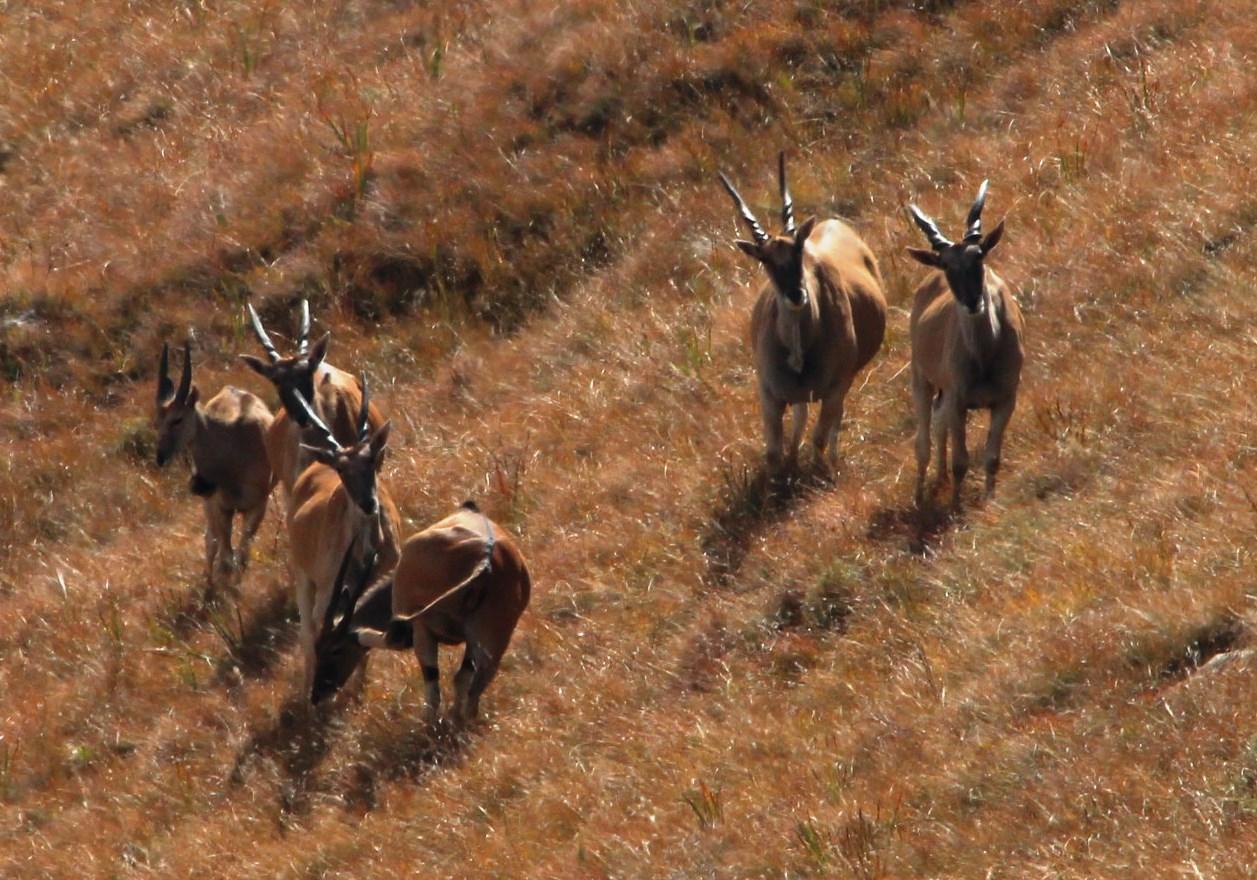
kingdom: Animalia
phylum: Chordata
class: Mammalia
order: Artiodactyla
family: Bovidae
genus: Taurotragus
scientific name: Taurotragus oryx
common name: Common eland
